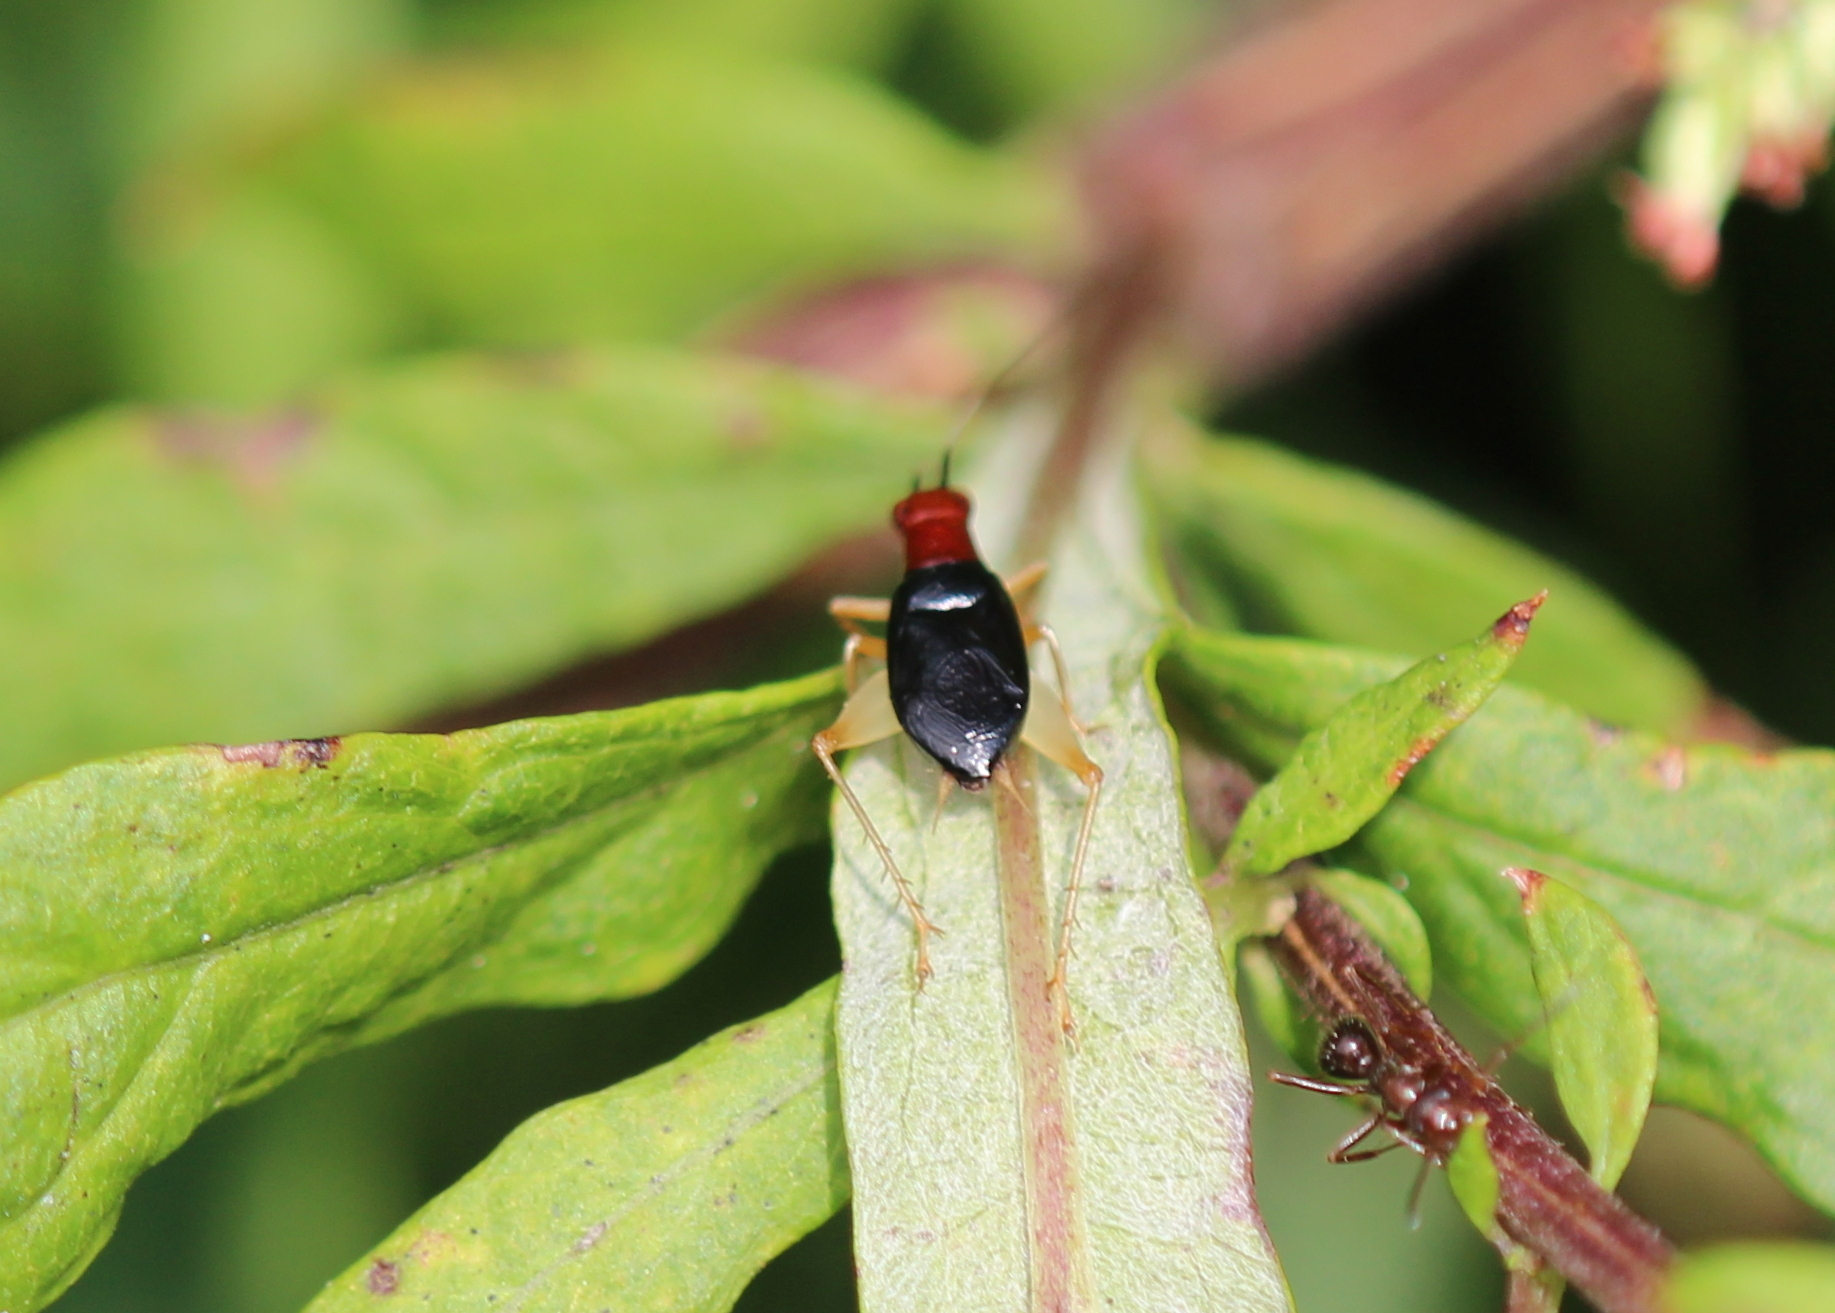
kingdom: Animalia
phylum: Arthropoda
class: Insecta
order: Orthoptera
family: Trigonidiidae
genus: Phyllopalpus
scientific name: Phyllopalpus pulchellus
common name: Handsome trig
